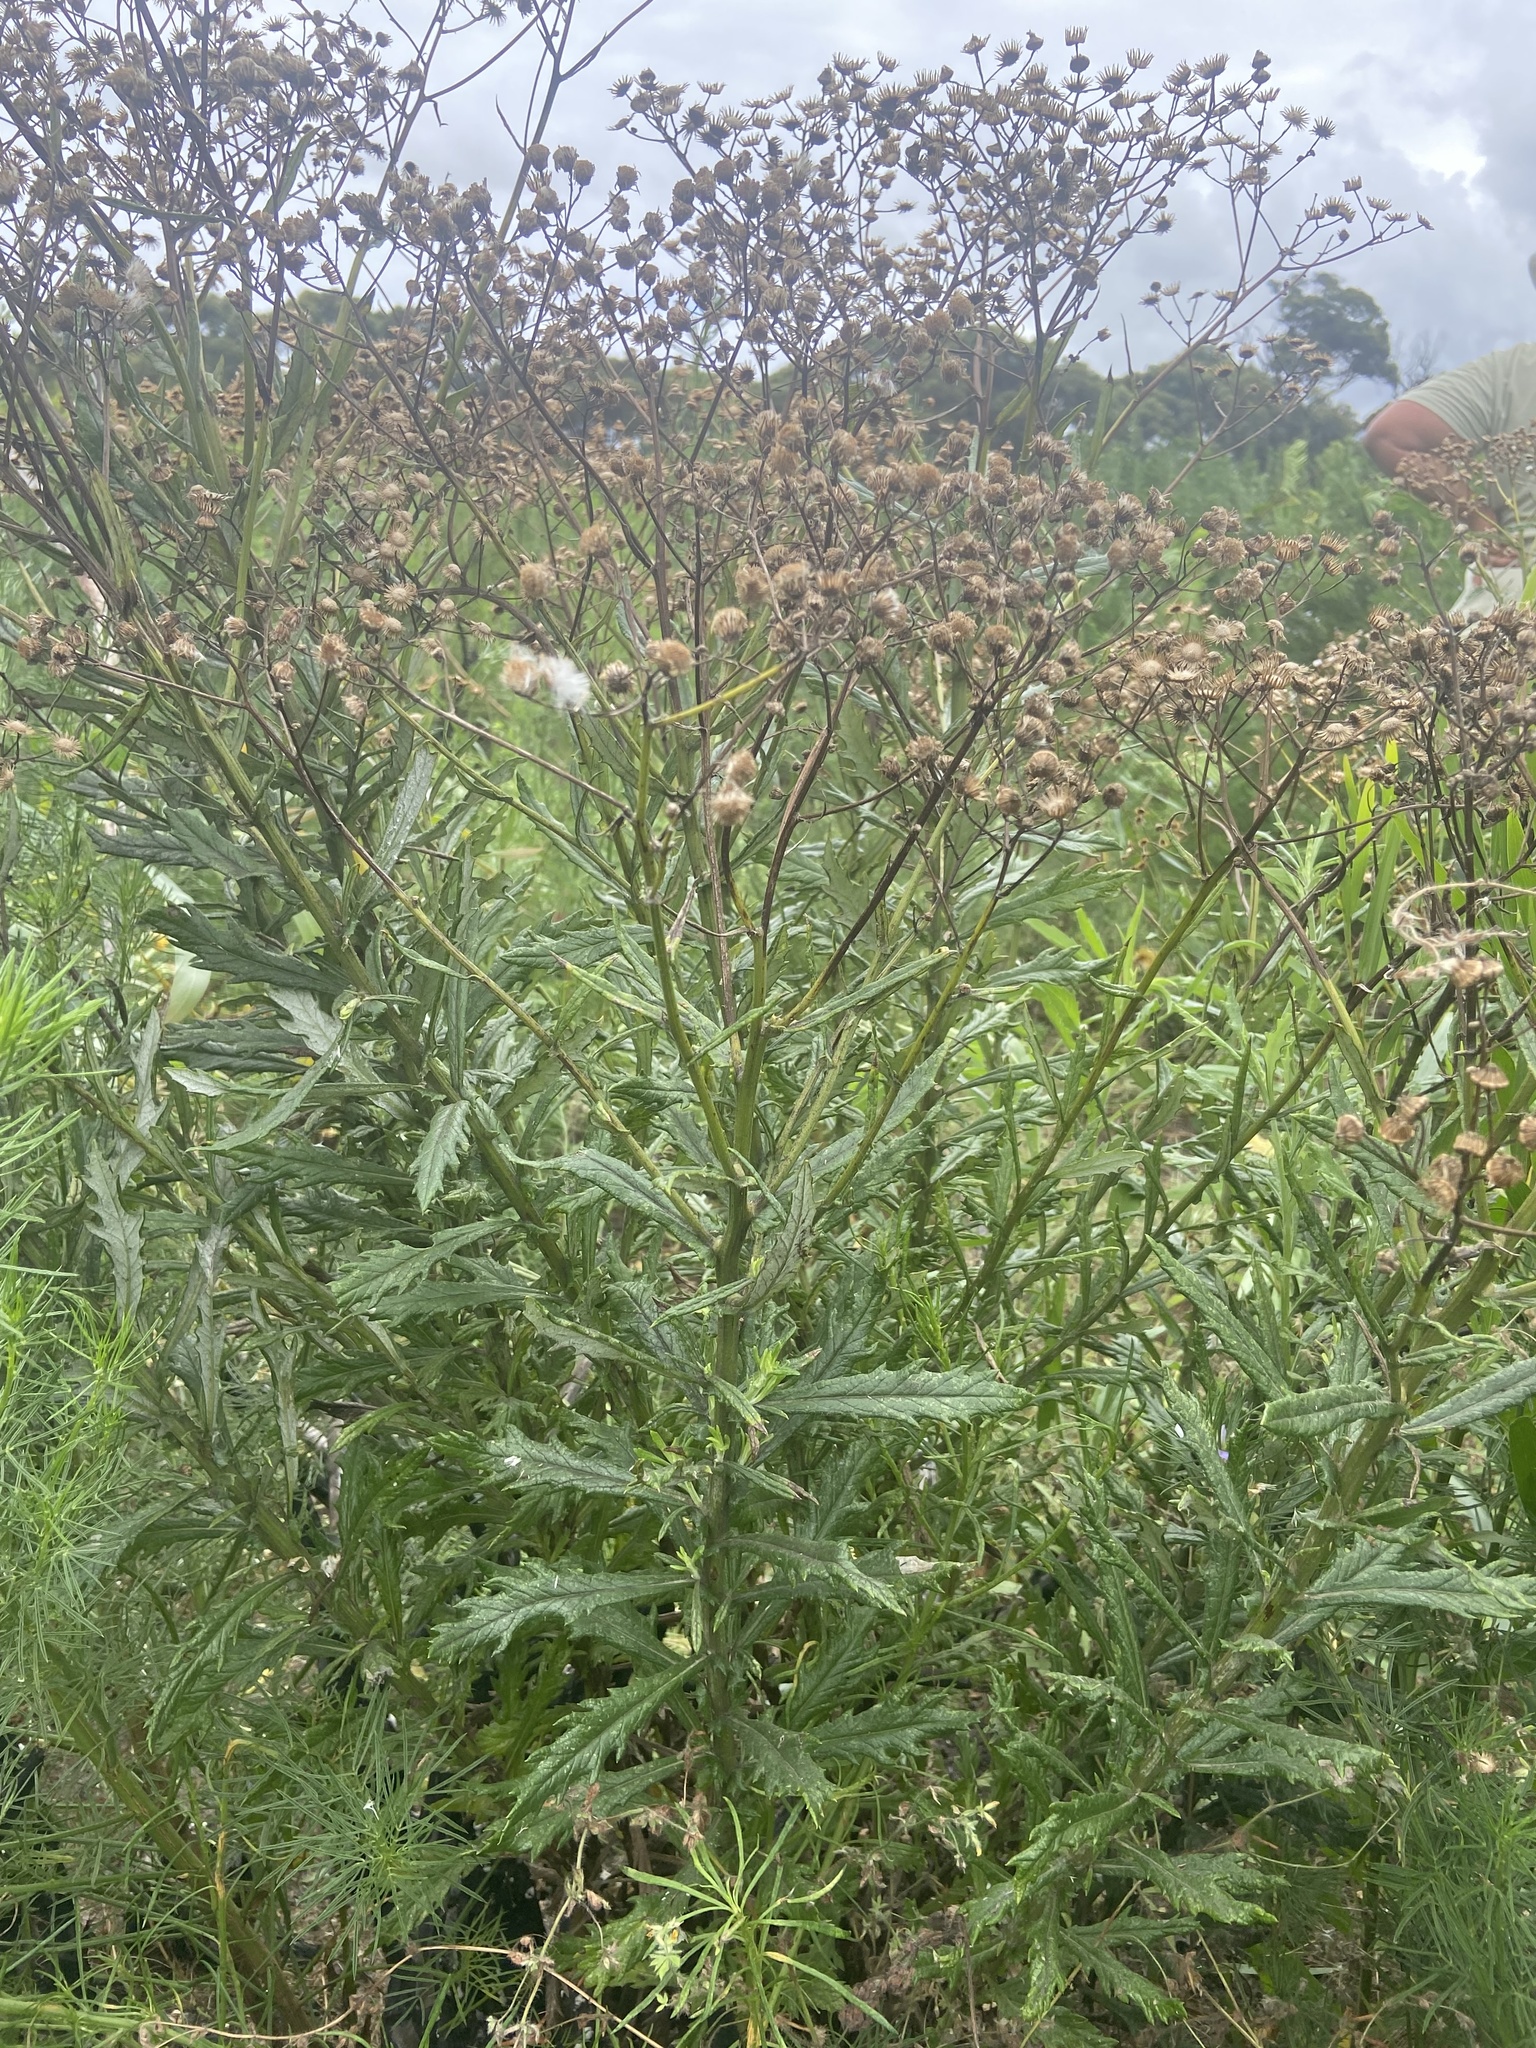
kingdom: Plantae
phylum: Tracheophyta
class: Magnoliopsida
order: Asterales
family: Asteraceae
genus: Senecio
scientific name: Senecio pterophorus
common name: Shoddy ragwort
